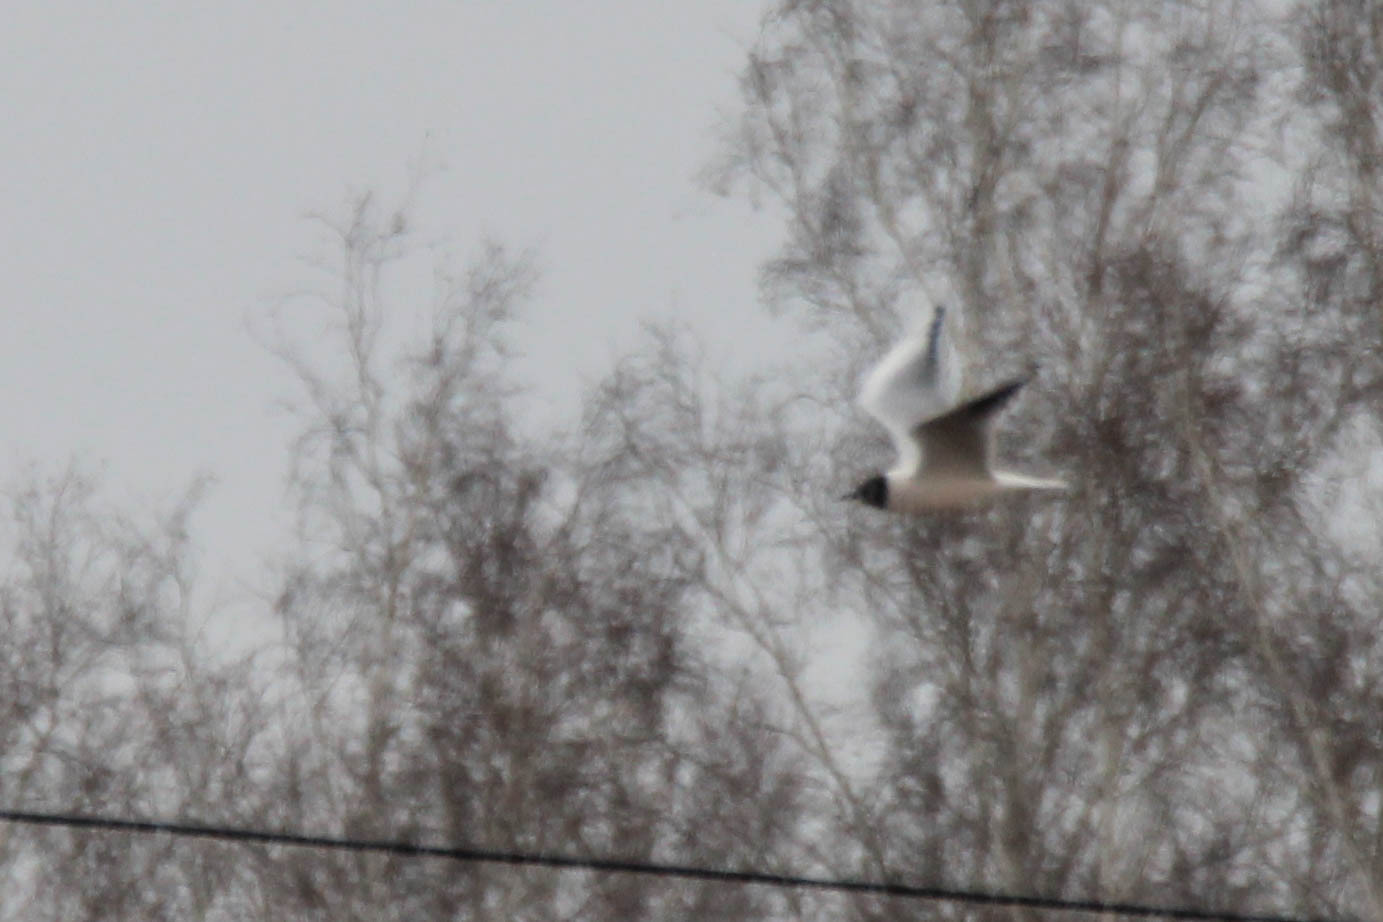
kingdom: Animalia
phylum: Chordata
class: Aves
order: Charadriiformes
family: Laridae
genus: Chroicocephalus
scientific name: Chroicocephalus ridibundus
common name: Black-headed gull
